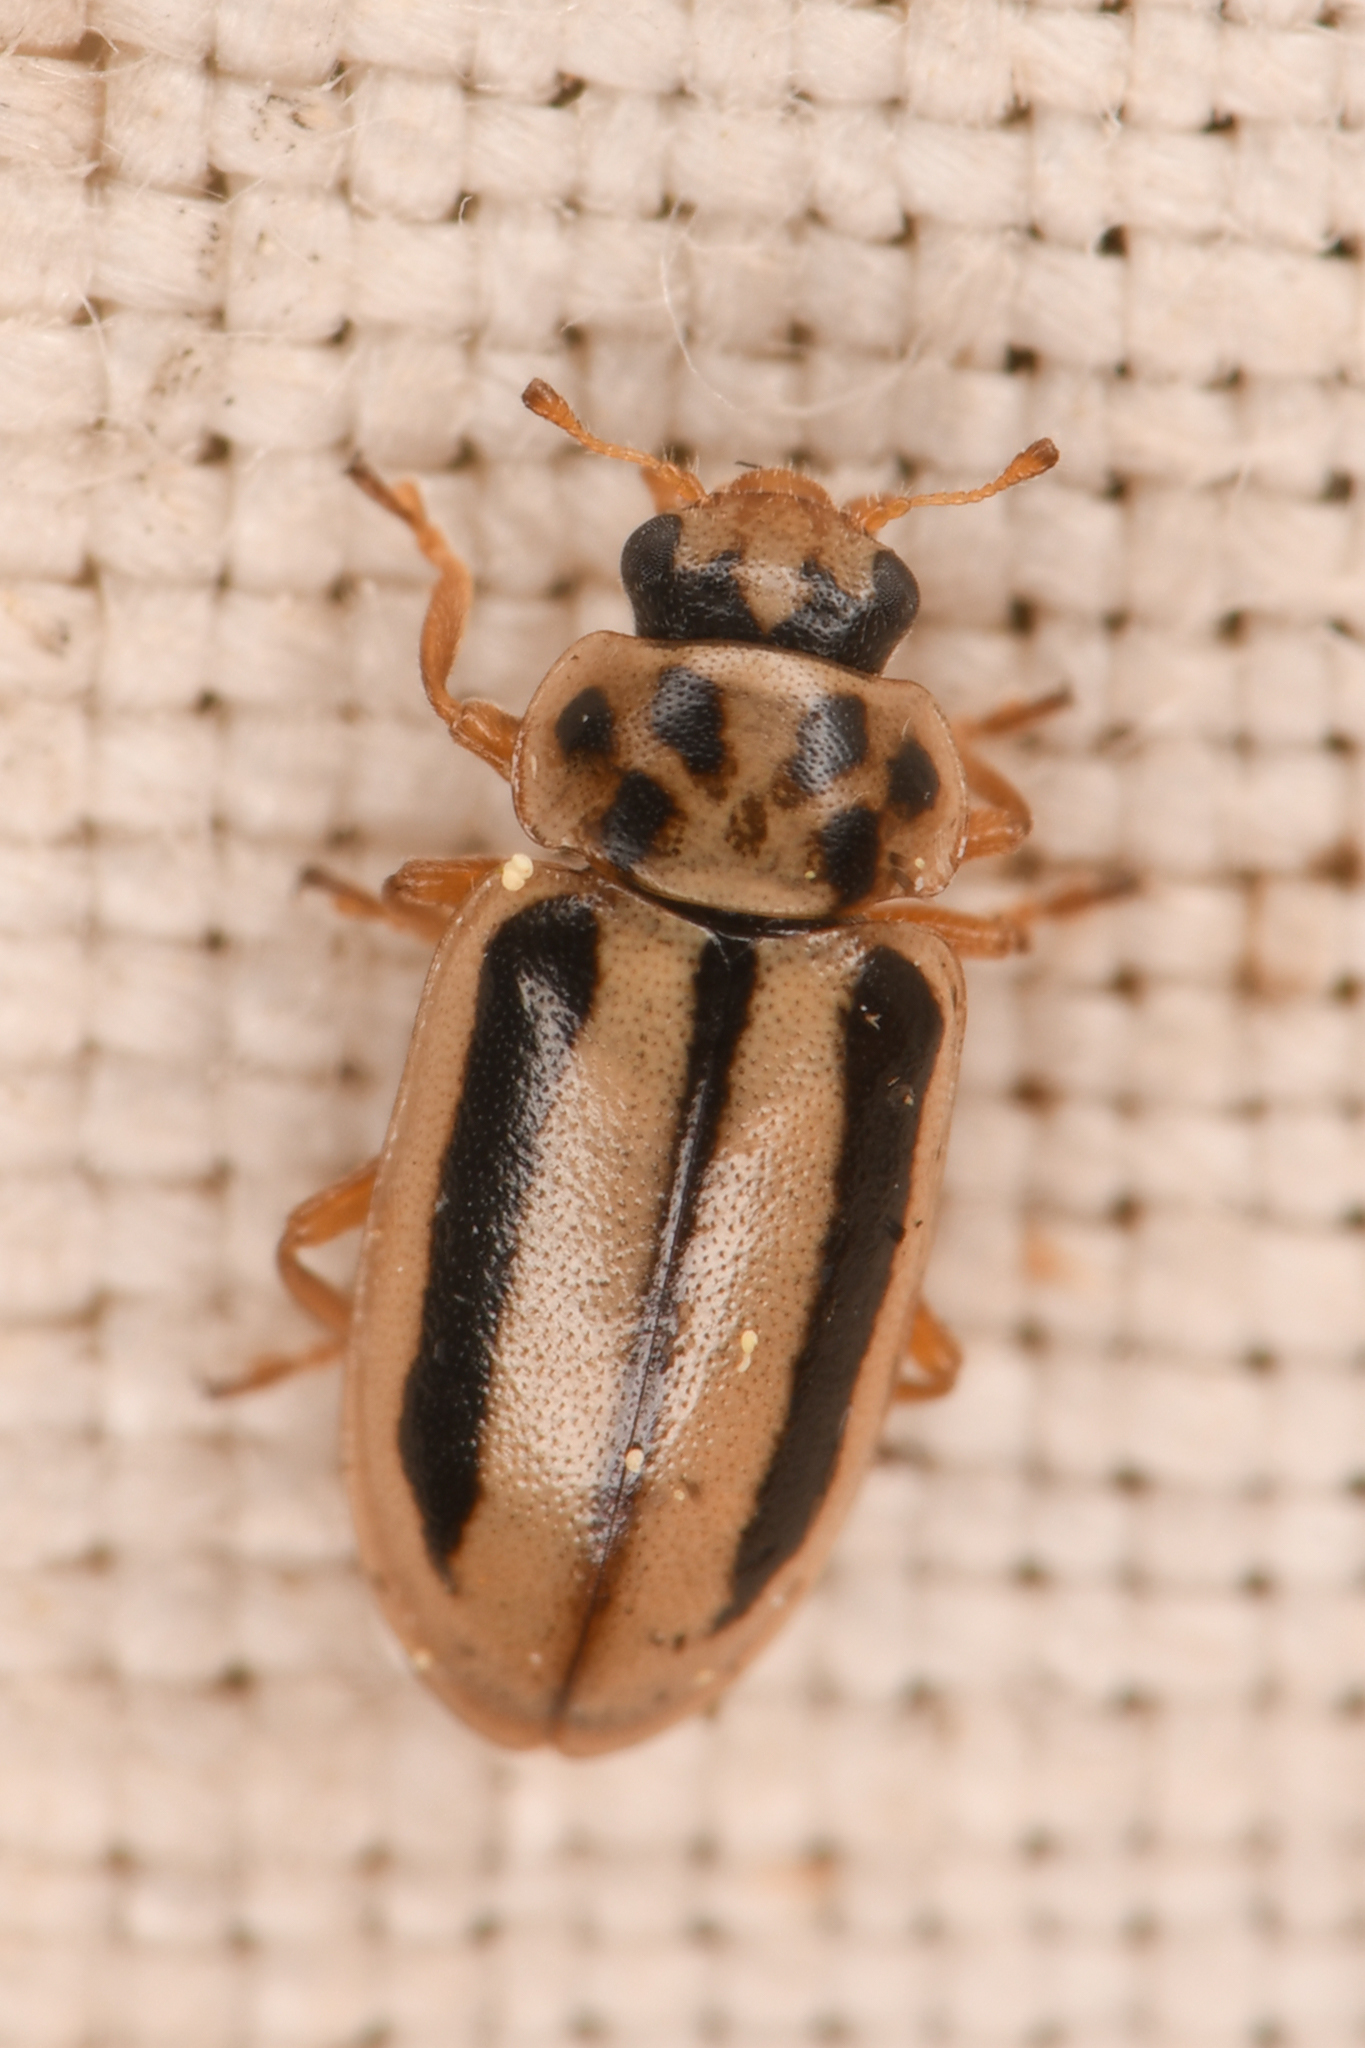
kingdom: Animalia
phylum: Arthropoda
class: Insecta
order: Coleoptera
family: Coccinellidae
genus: Macronaemia
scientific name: Macronaemia episcopalis
